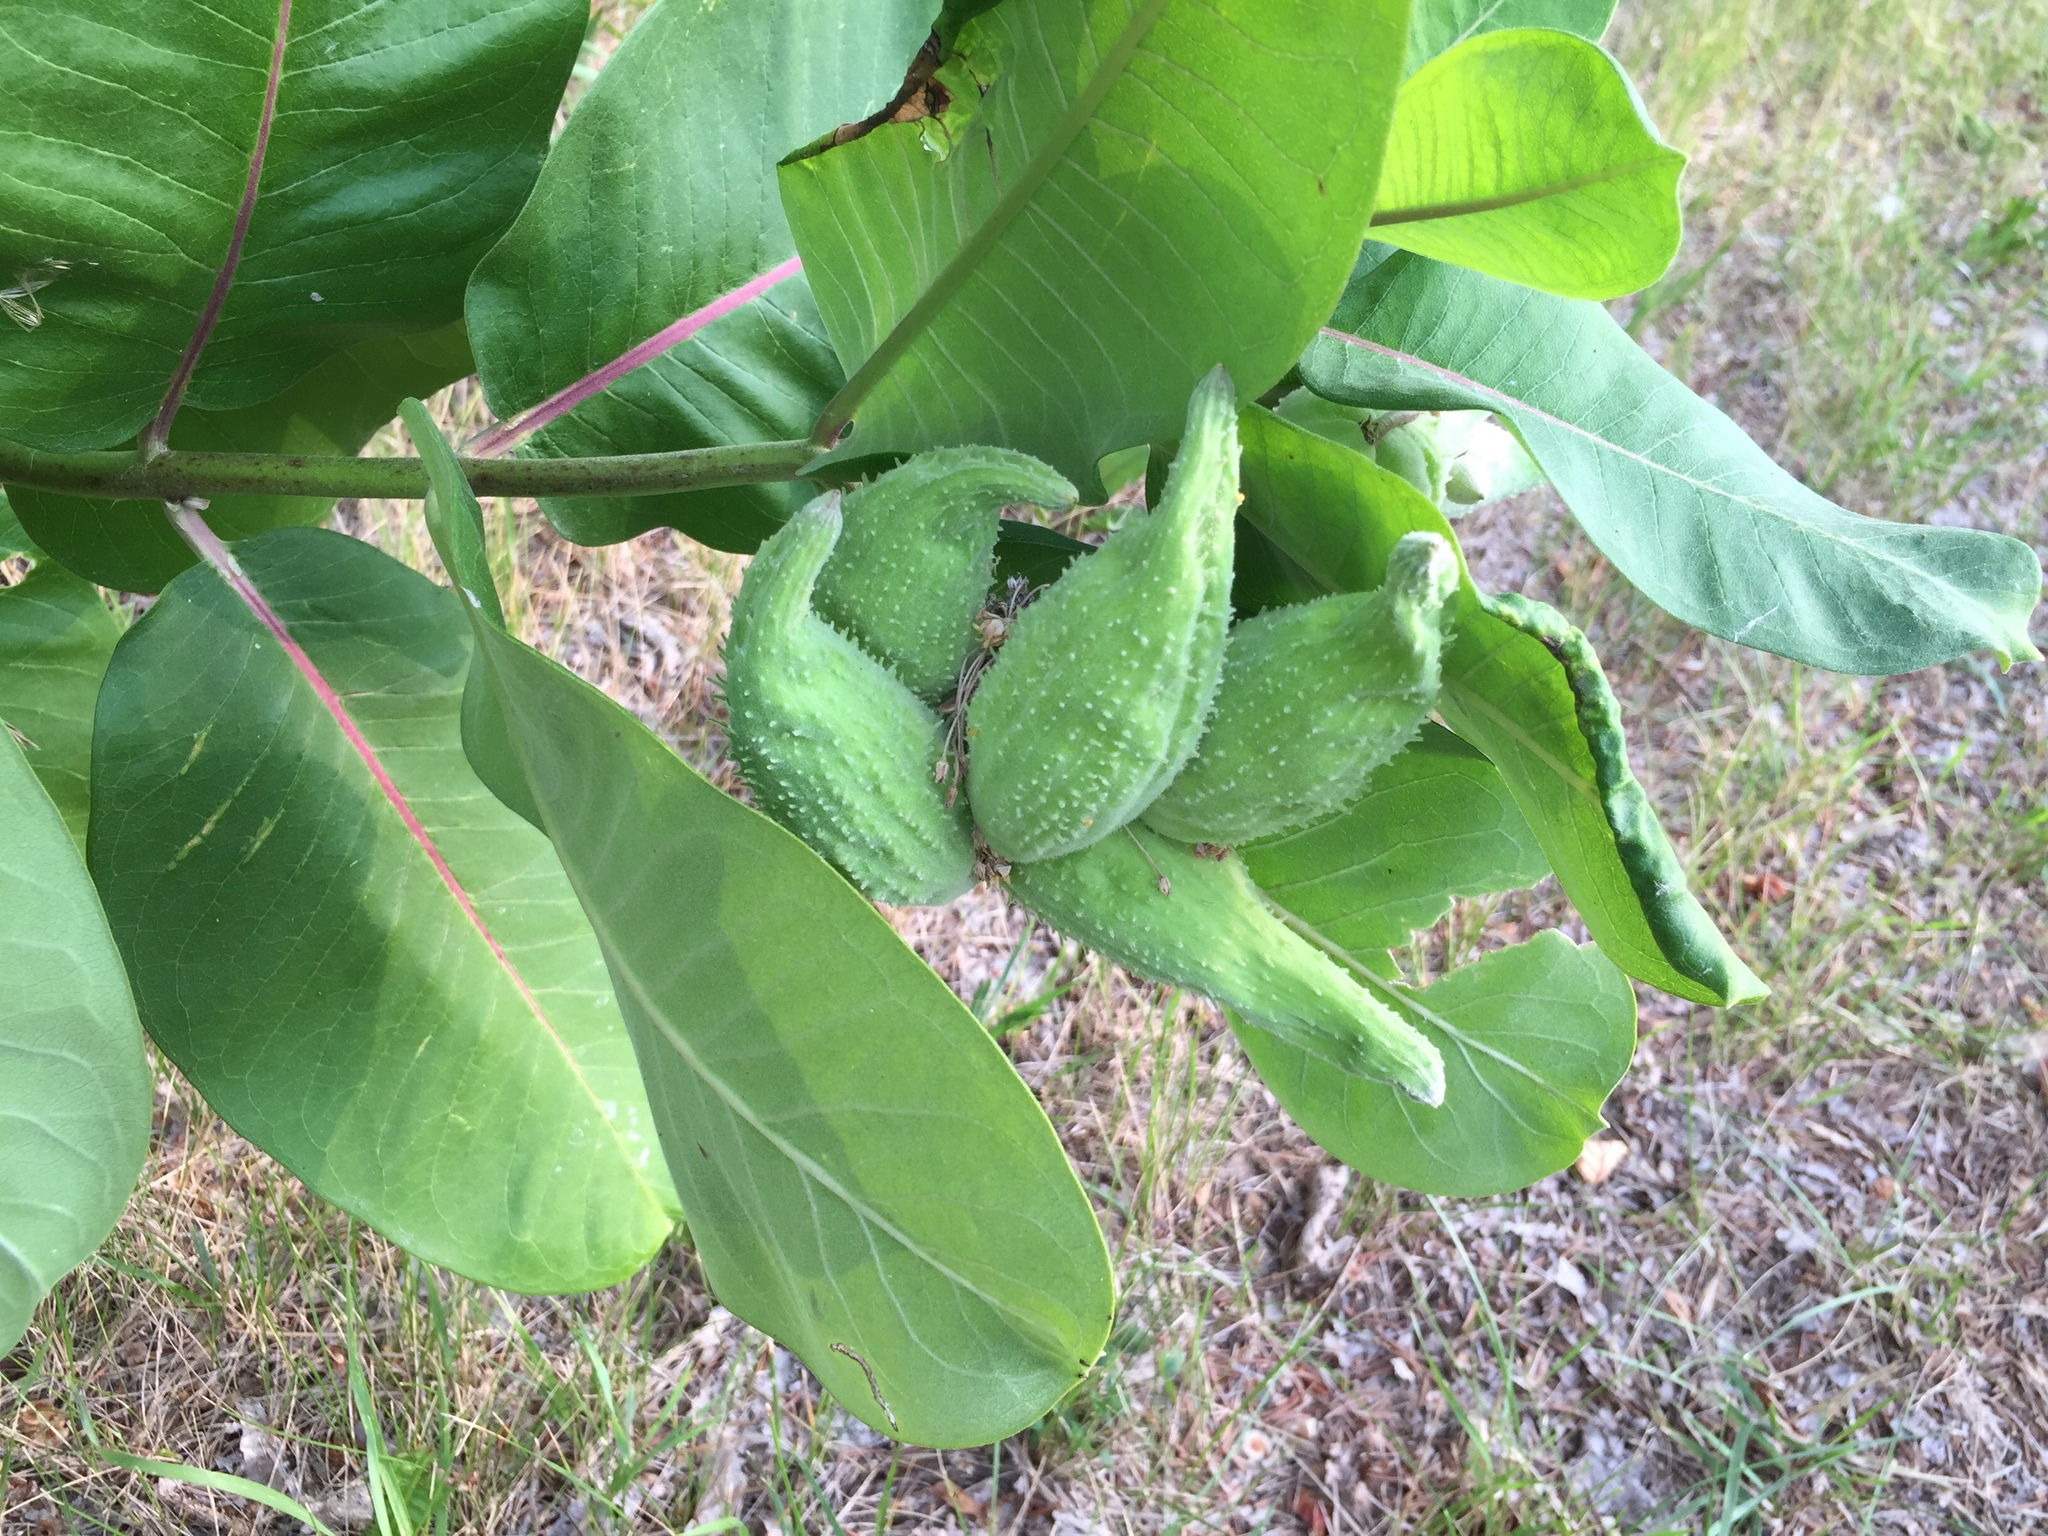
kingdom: Plantae
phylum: Tracheophyta
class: Magnoliopsida
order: Gentianales
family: Apocynaceae
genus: Asclepias
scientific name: Asclepias syriaca
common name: Common milkweed
